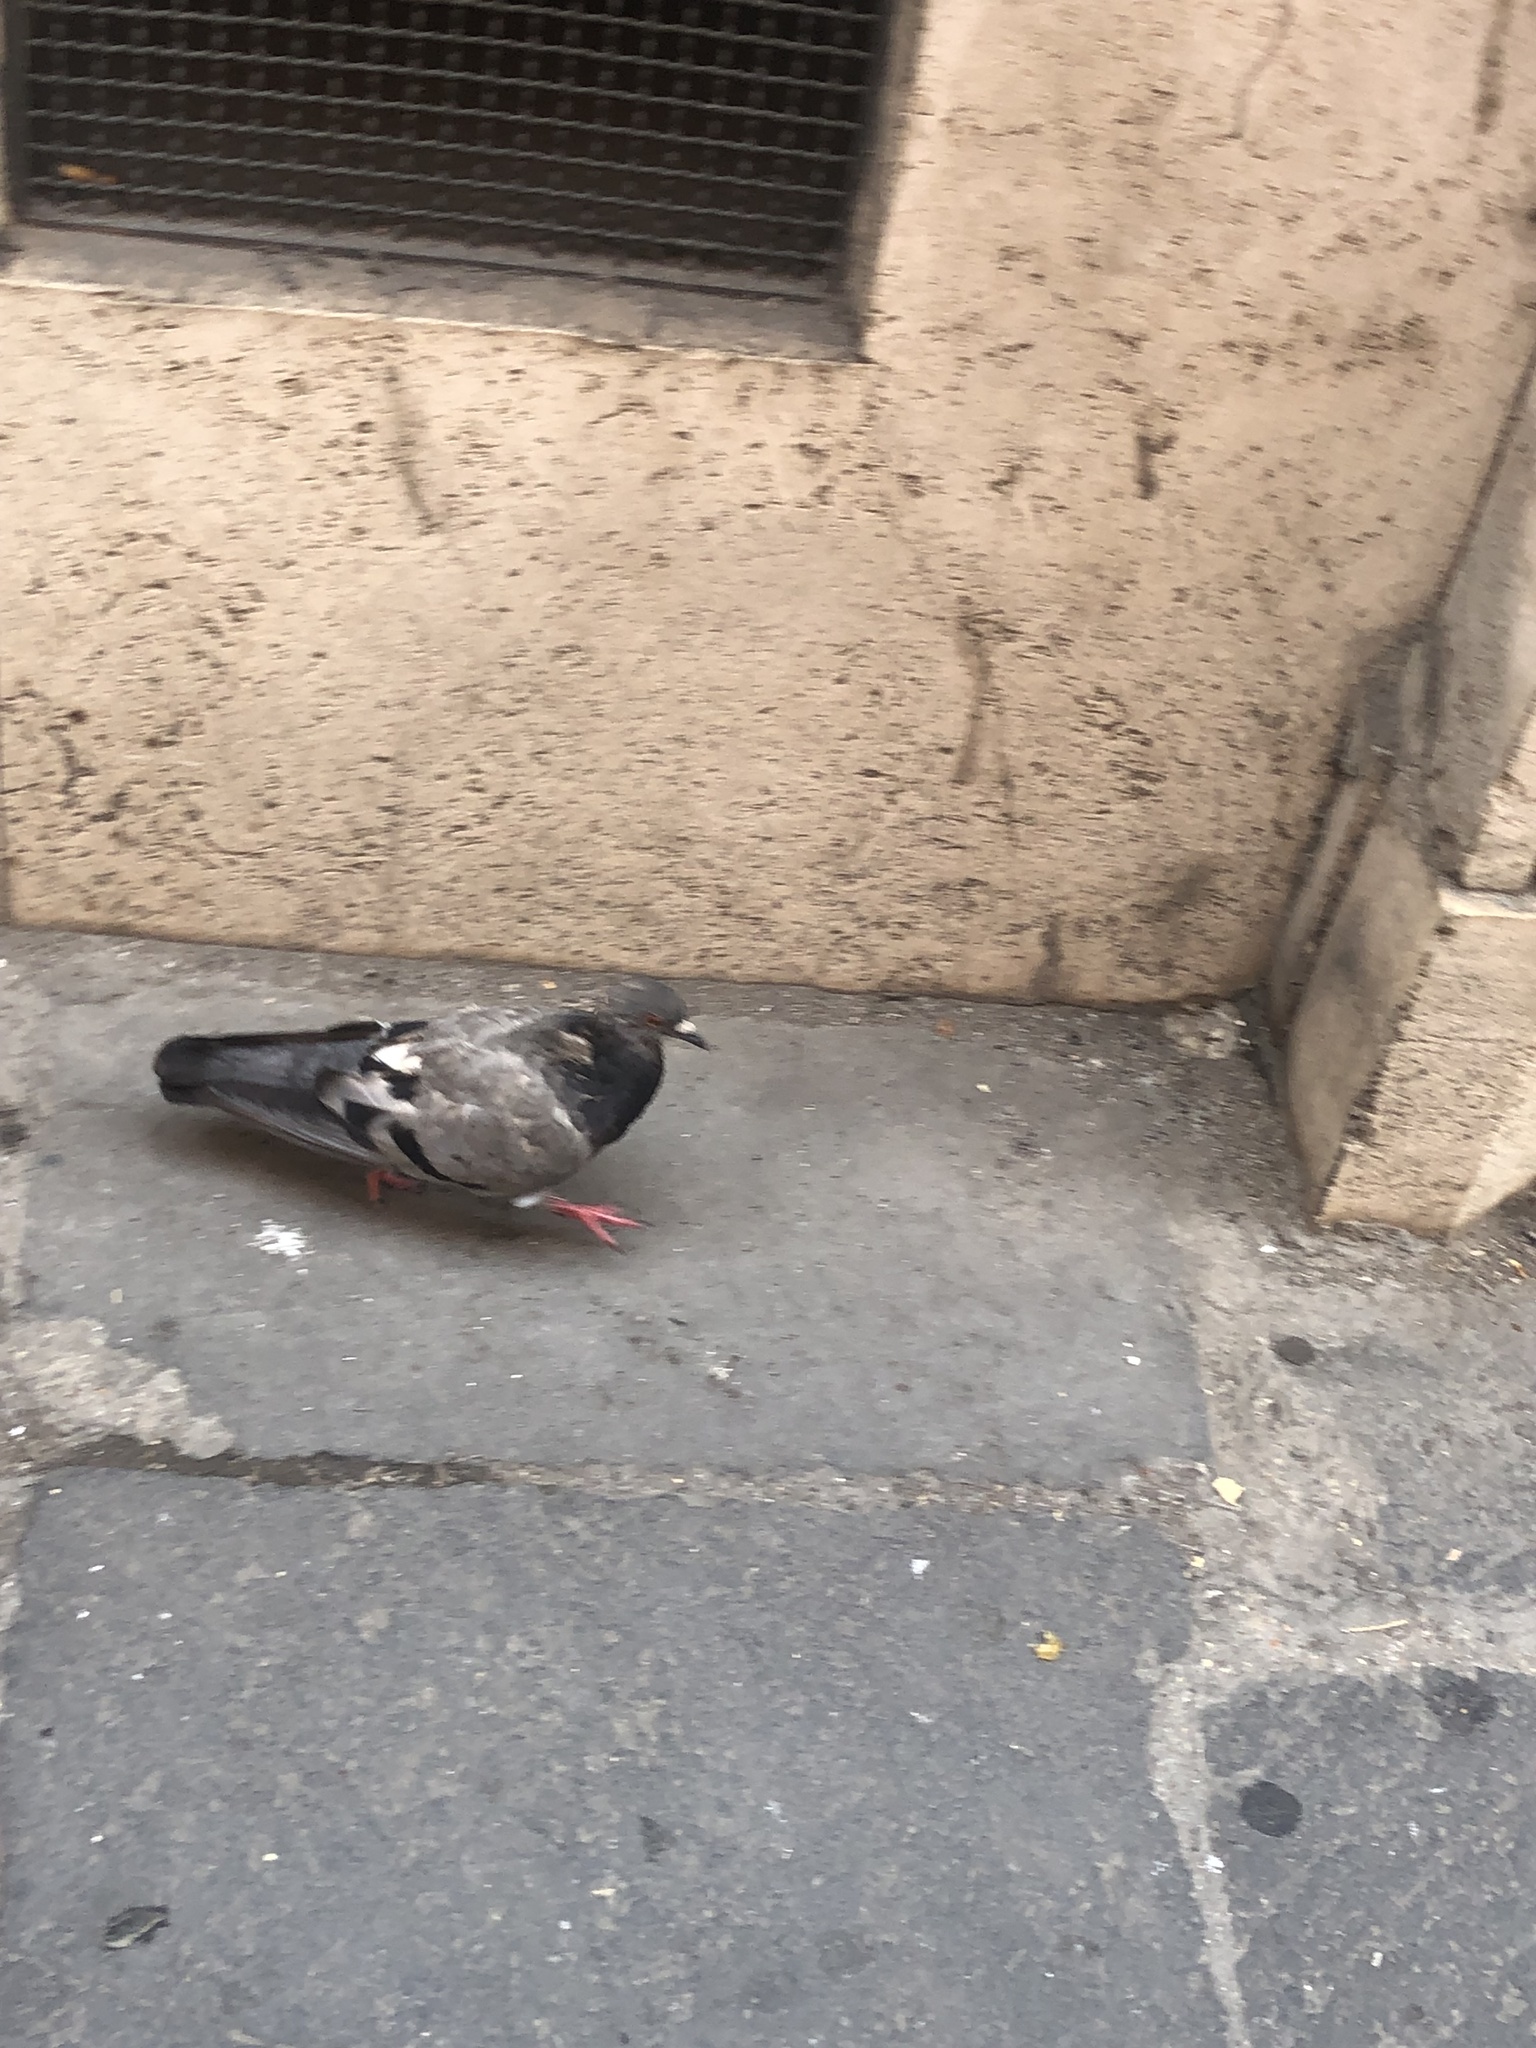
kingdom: Animalia
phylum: Chordata
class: Aves
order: Columbiformes
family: Columbidae
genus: Columba
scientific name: Columba livia
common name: Rock pigeon
